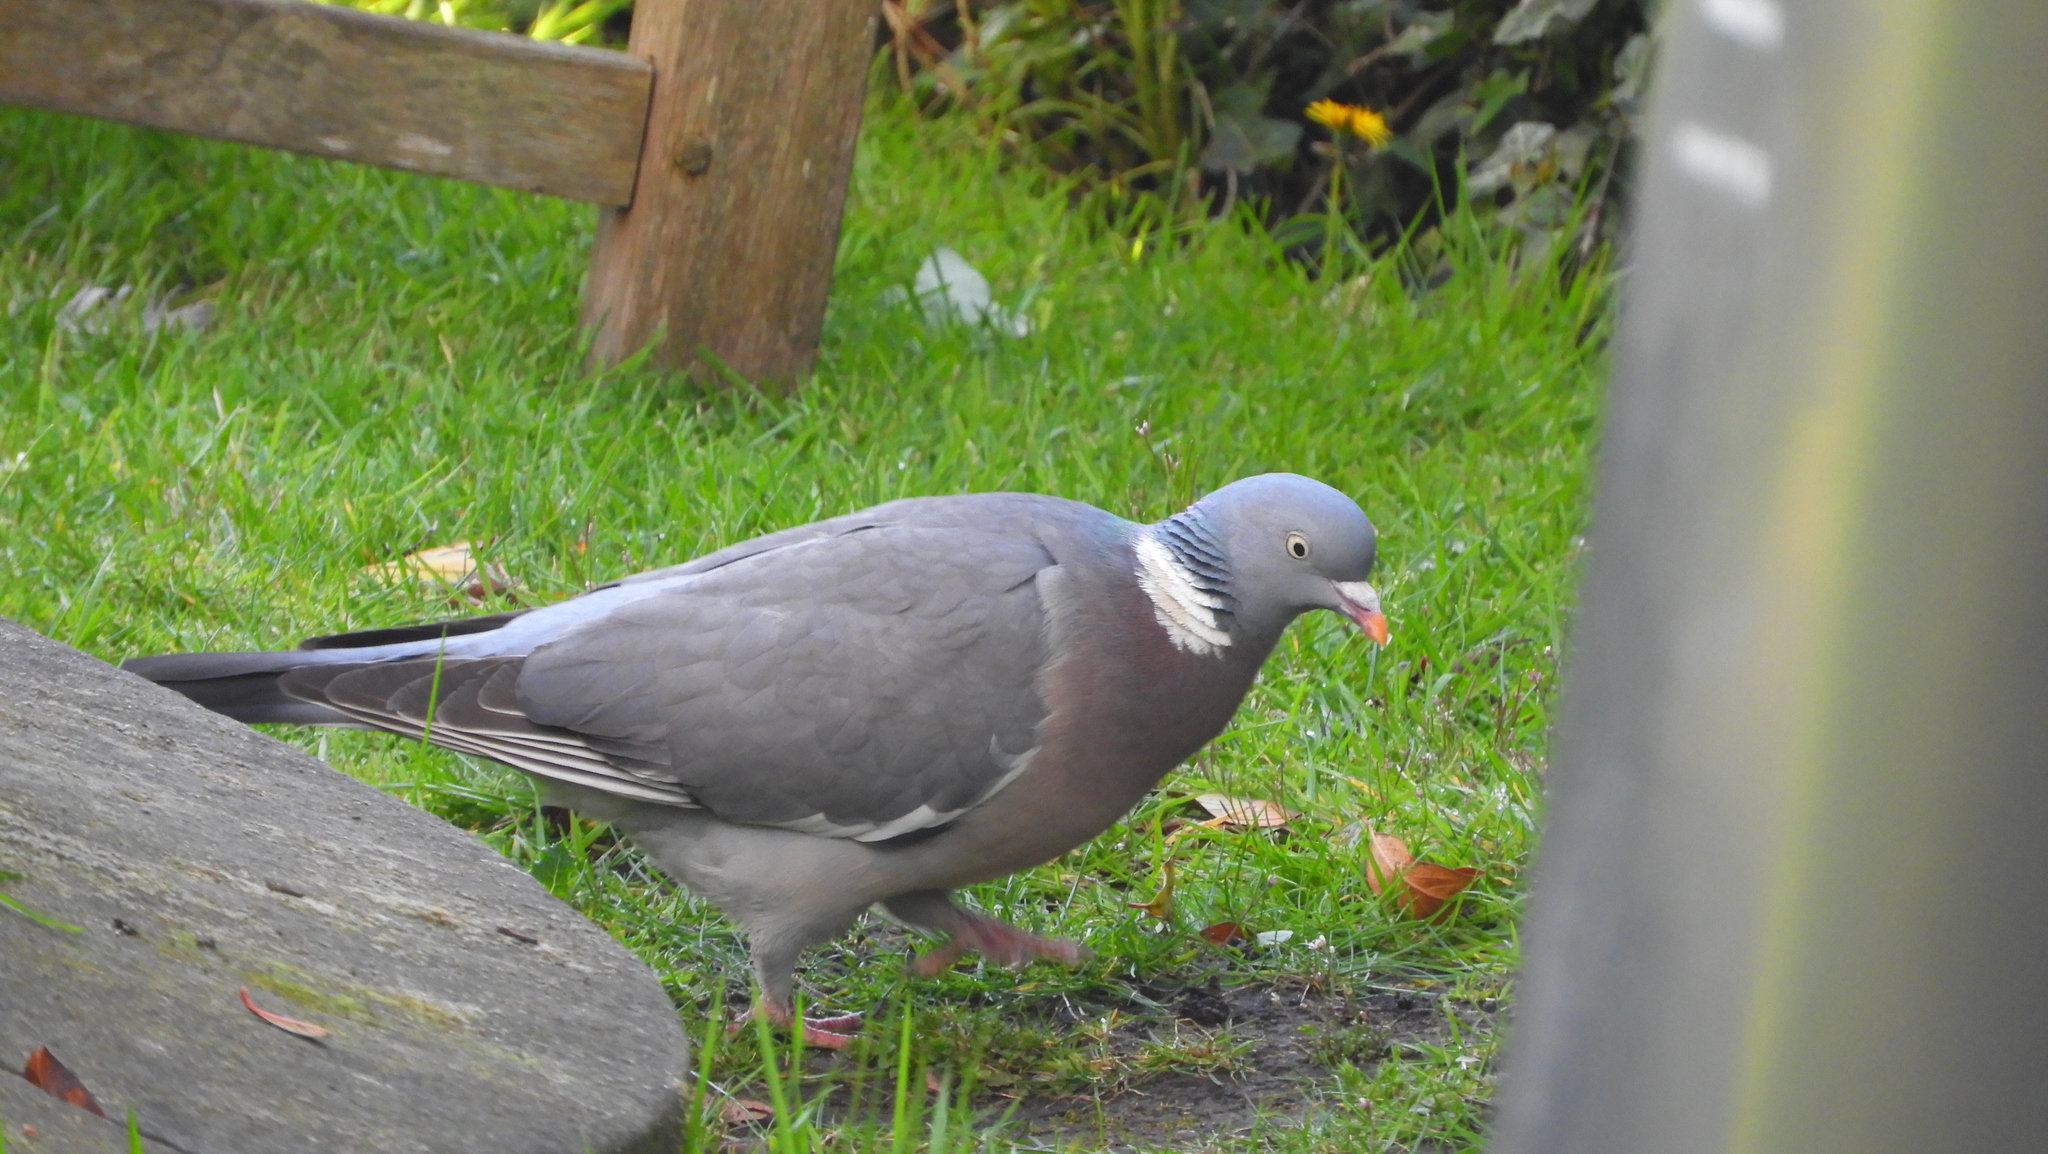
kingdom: Animalia
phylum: Chordata
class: Aves
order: Columbiformes
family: Columbidae
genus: Columba
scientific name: Columba palumbus
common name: Common wood pigeon
